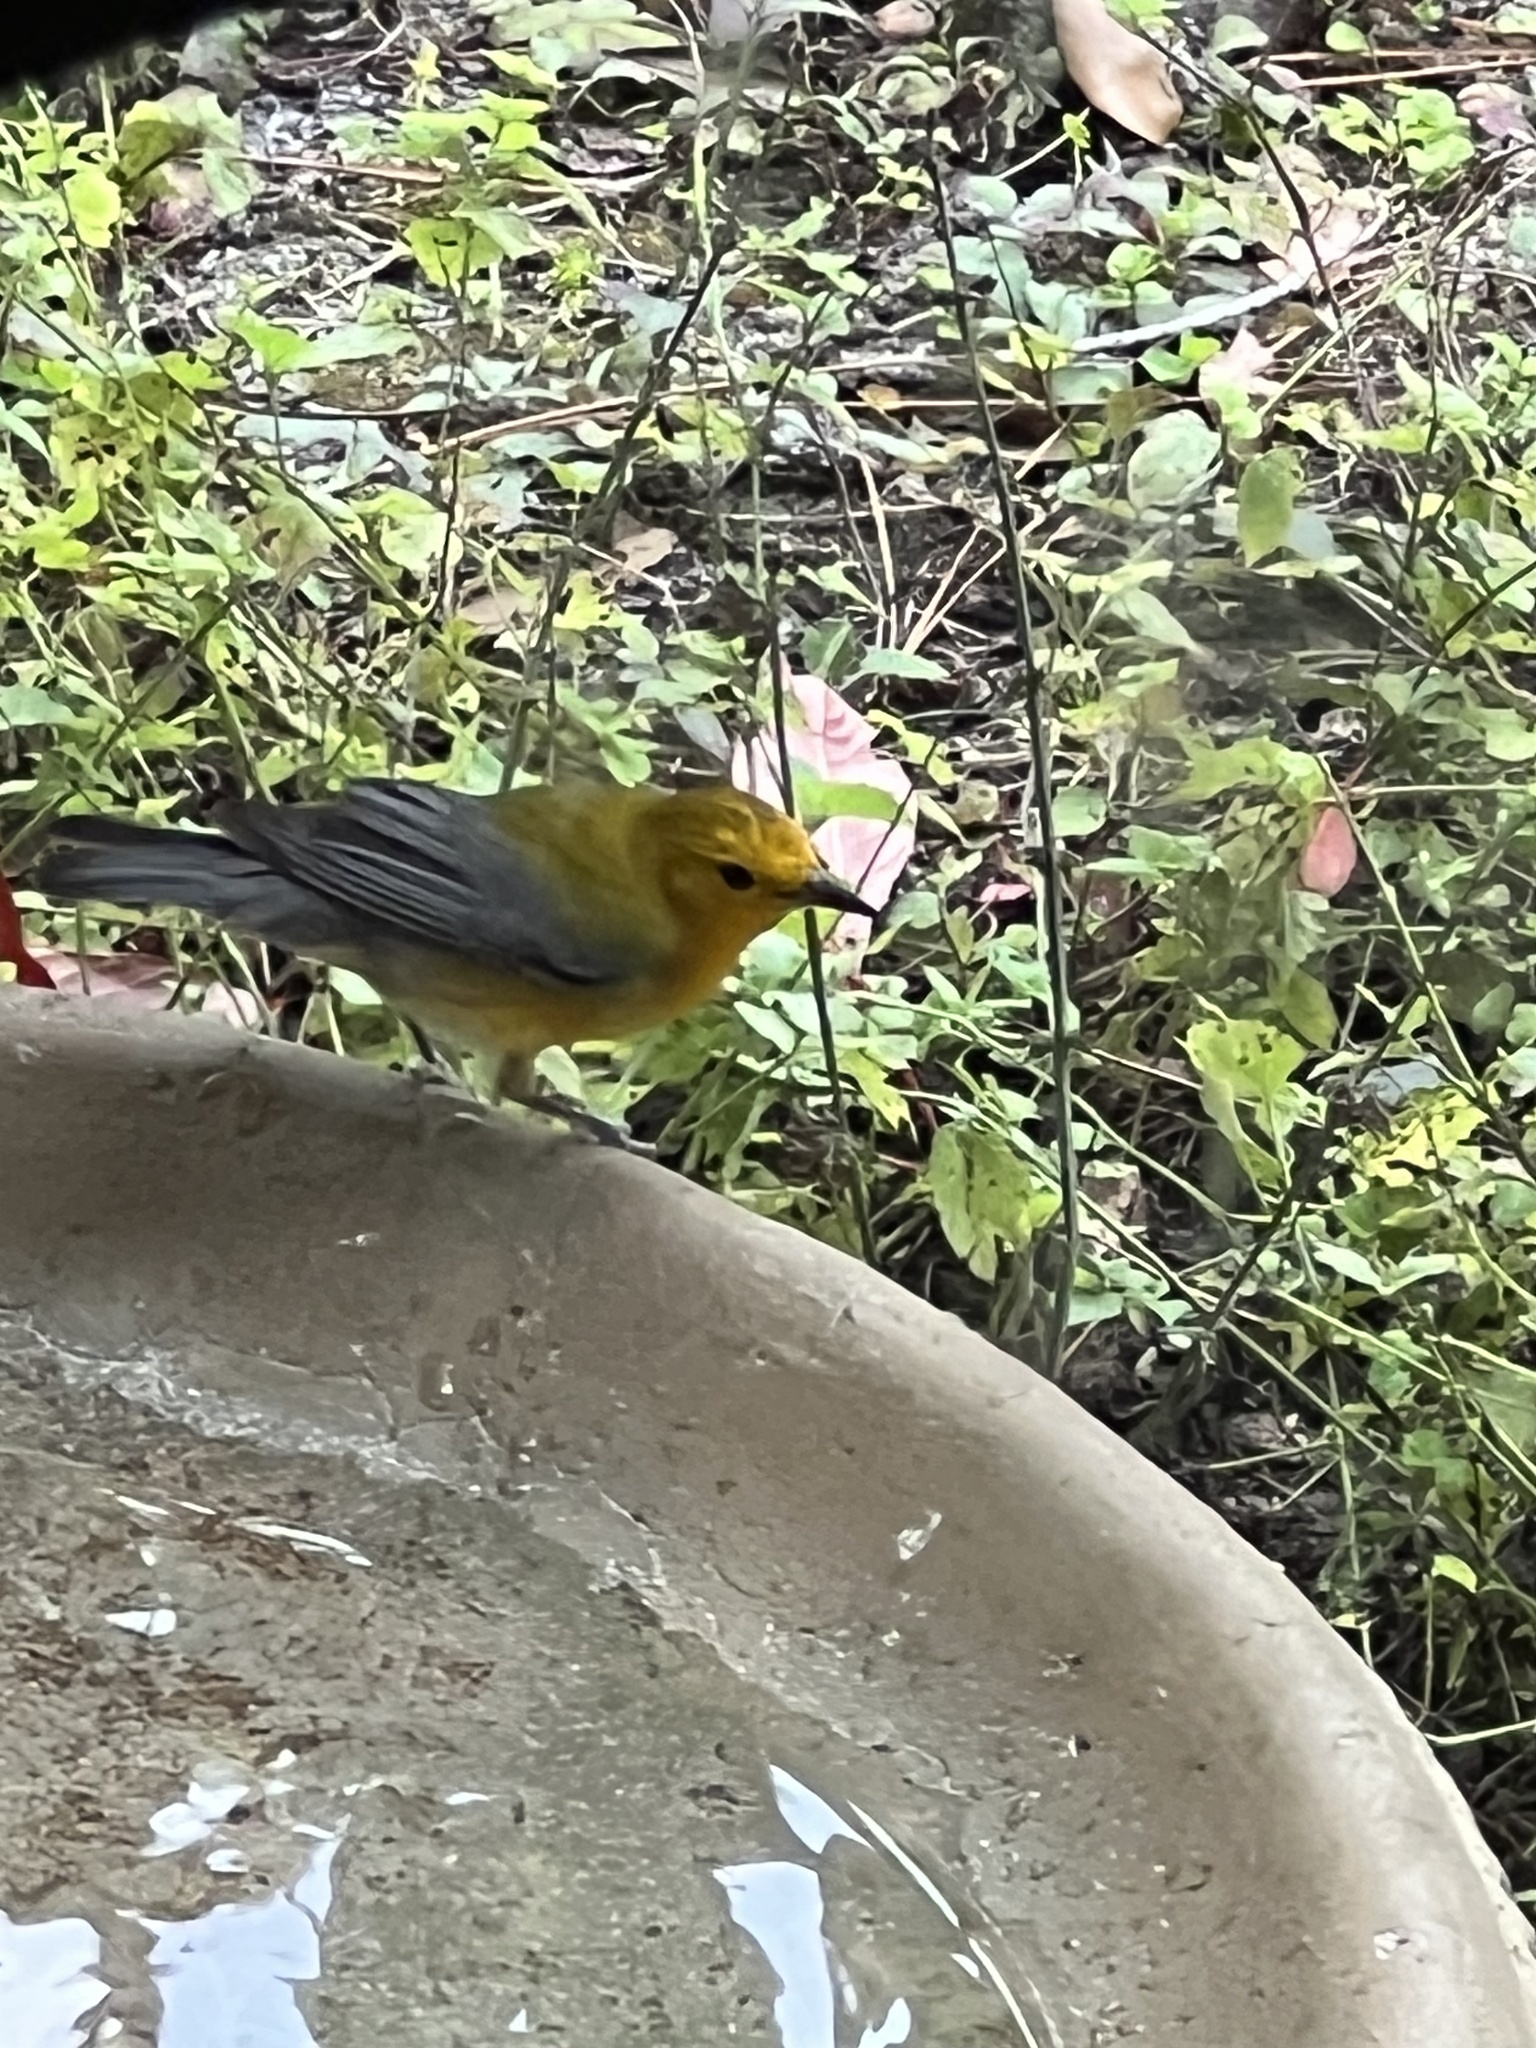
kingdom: Animalia
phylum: Chordata
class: Aves
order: Passeriformes
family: Parulidae
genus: Protonotaria
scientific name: Protonotaria citrea
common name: Prothonotary warbler
